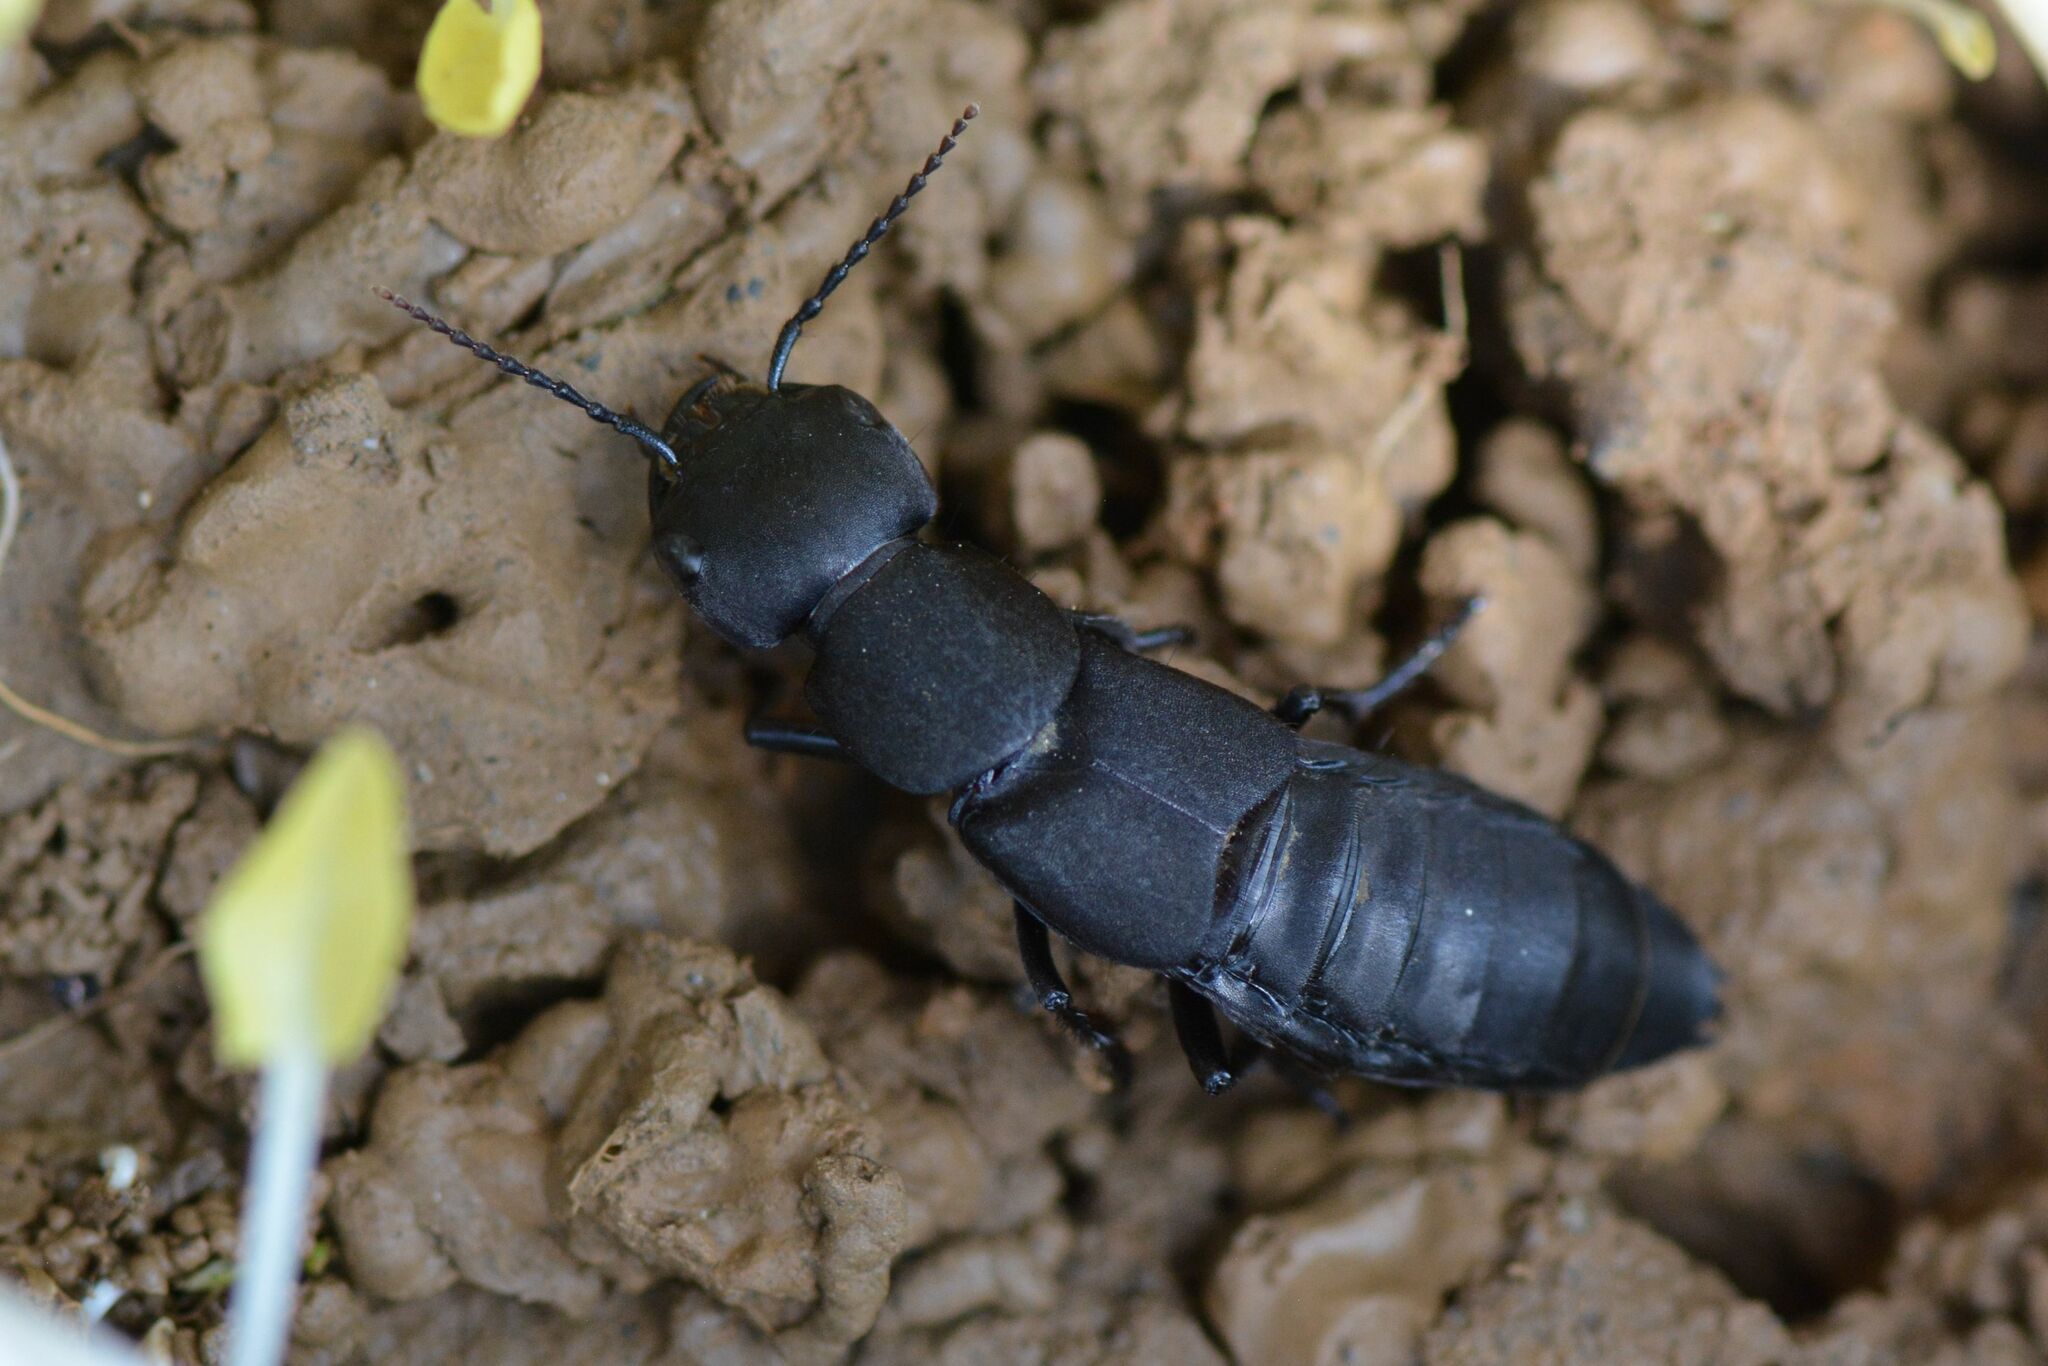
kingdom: Animalia
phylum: Arthropoda
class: Insecta
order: Coleoptera
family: Staphylinidae
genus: Ocypus
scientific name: Ocypus olens
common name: Devil's coach-horse
